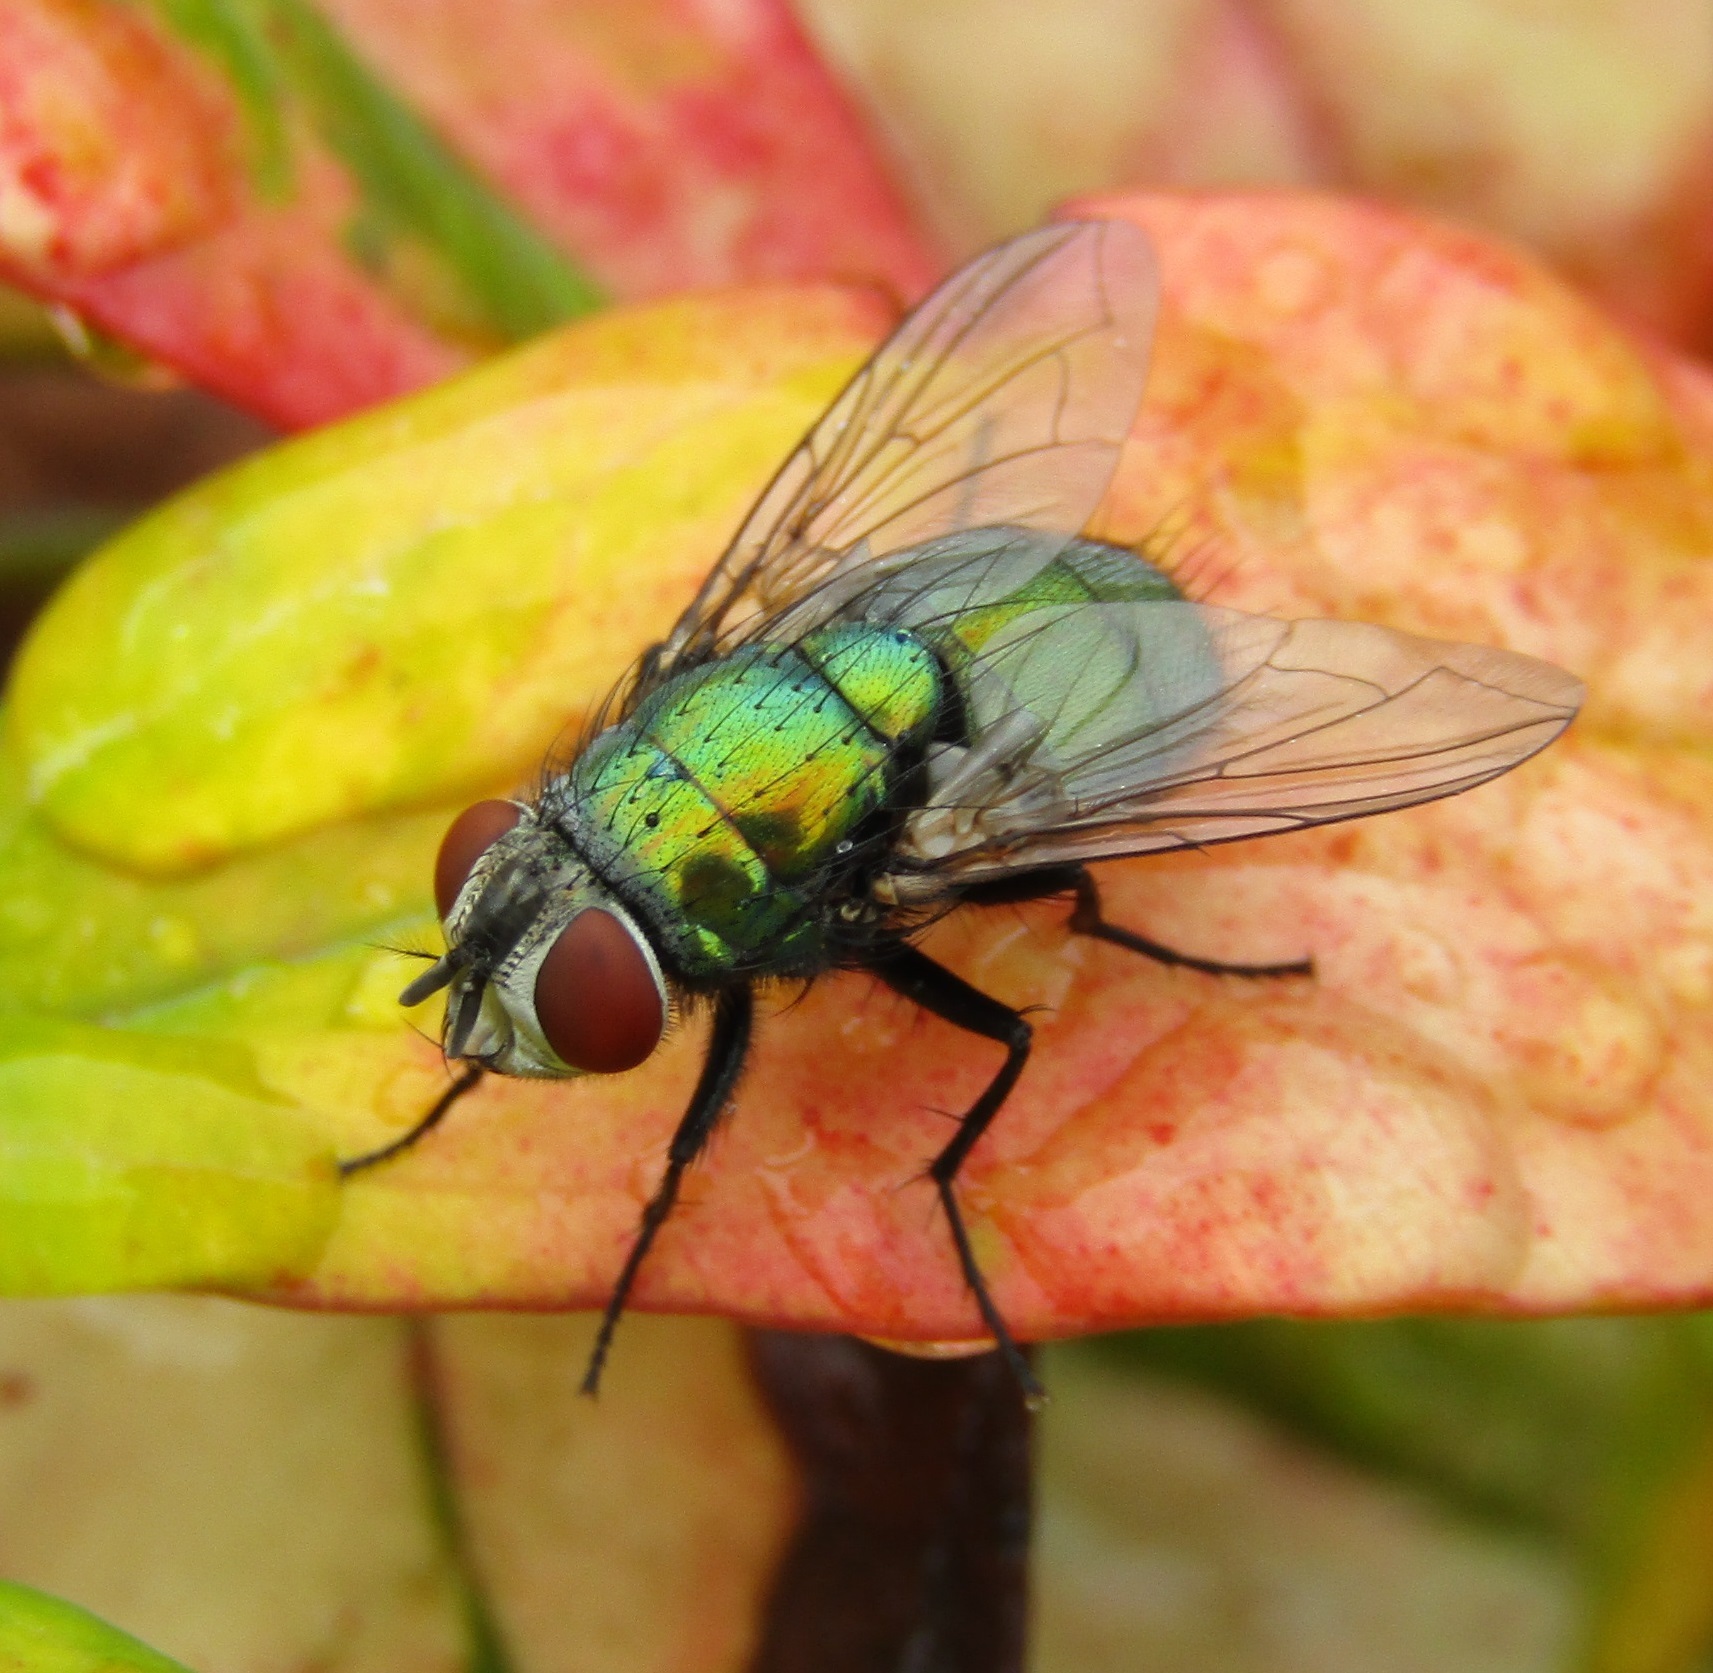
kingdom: Animalia
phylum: Arthropoda
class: Insecta
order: Diptera
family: Calliphoridae
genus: Lucilia
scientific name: Lucilia sericata
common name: Blow fly
